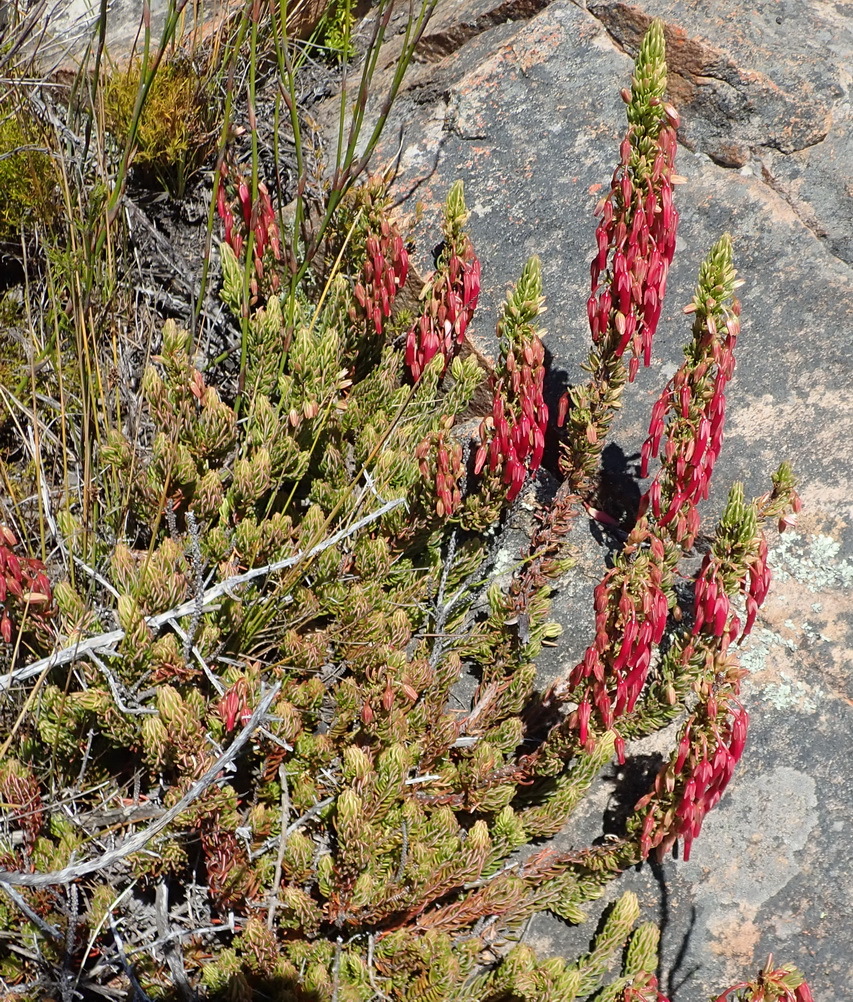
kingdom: Plantae
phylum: Tracheophyta
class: Magnoliopsida
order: Ericales
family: Ericaceae
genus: Erica
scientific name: Erica plukenetii
